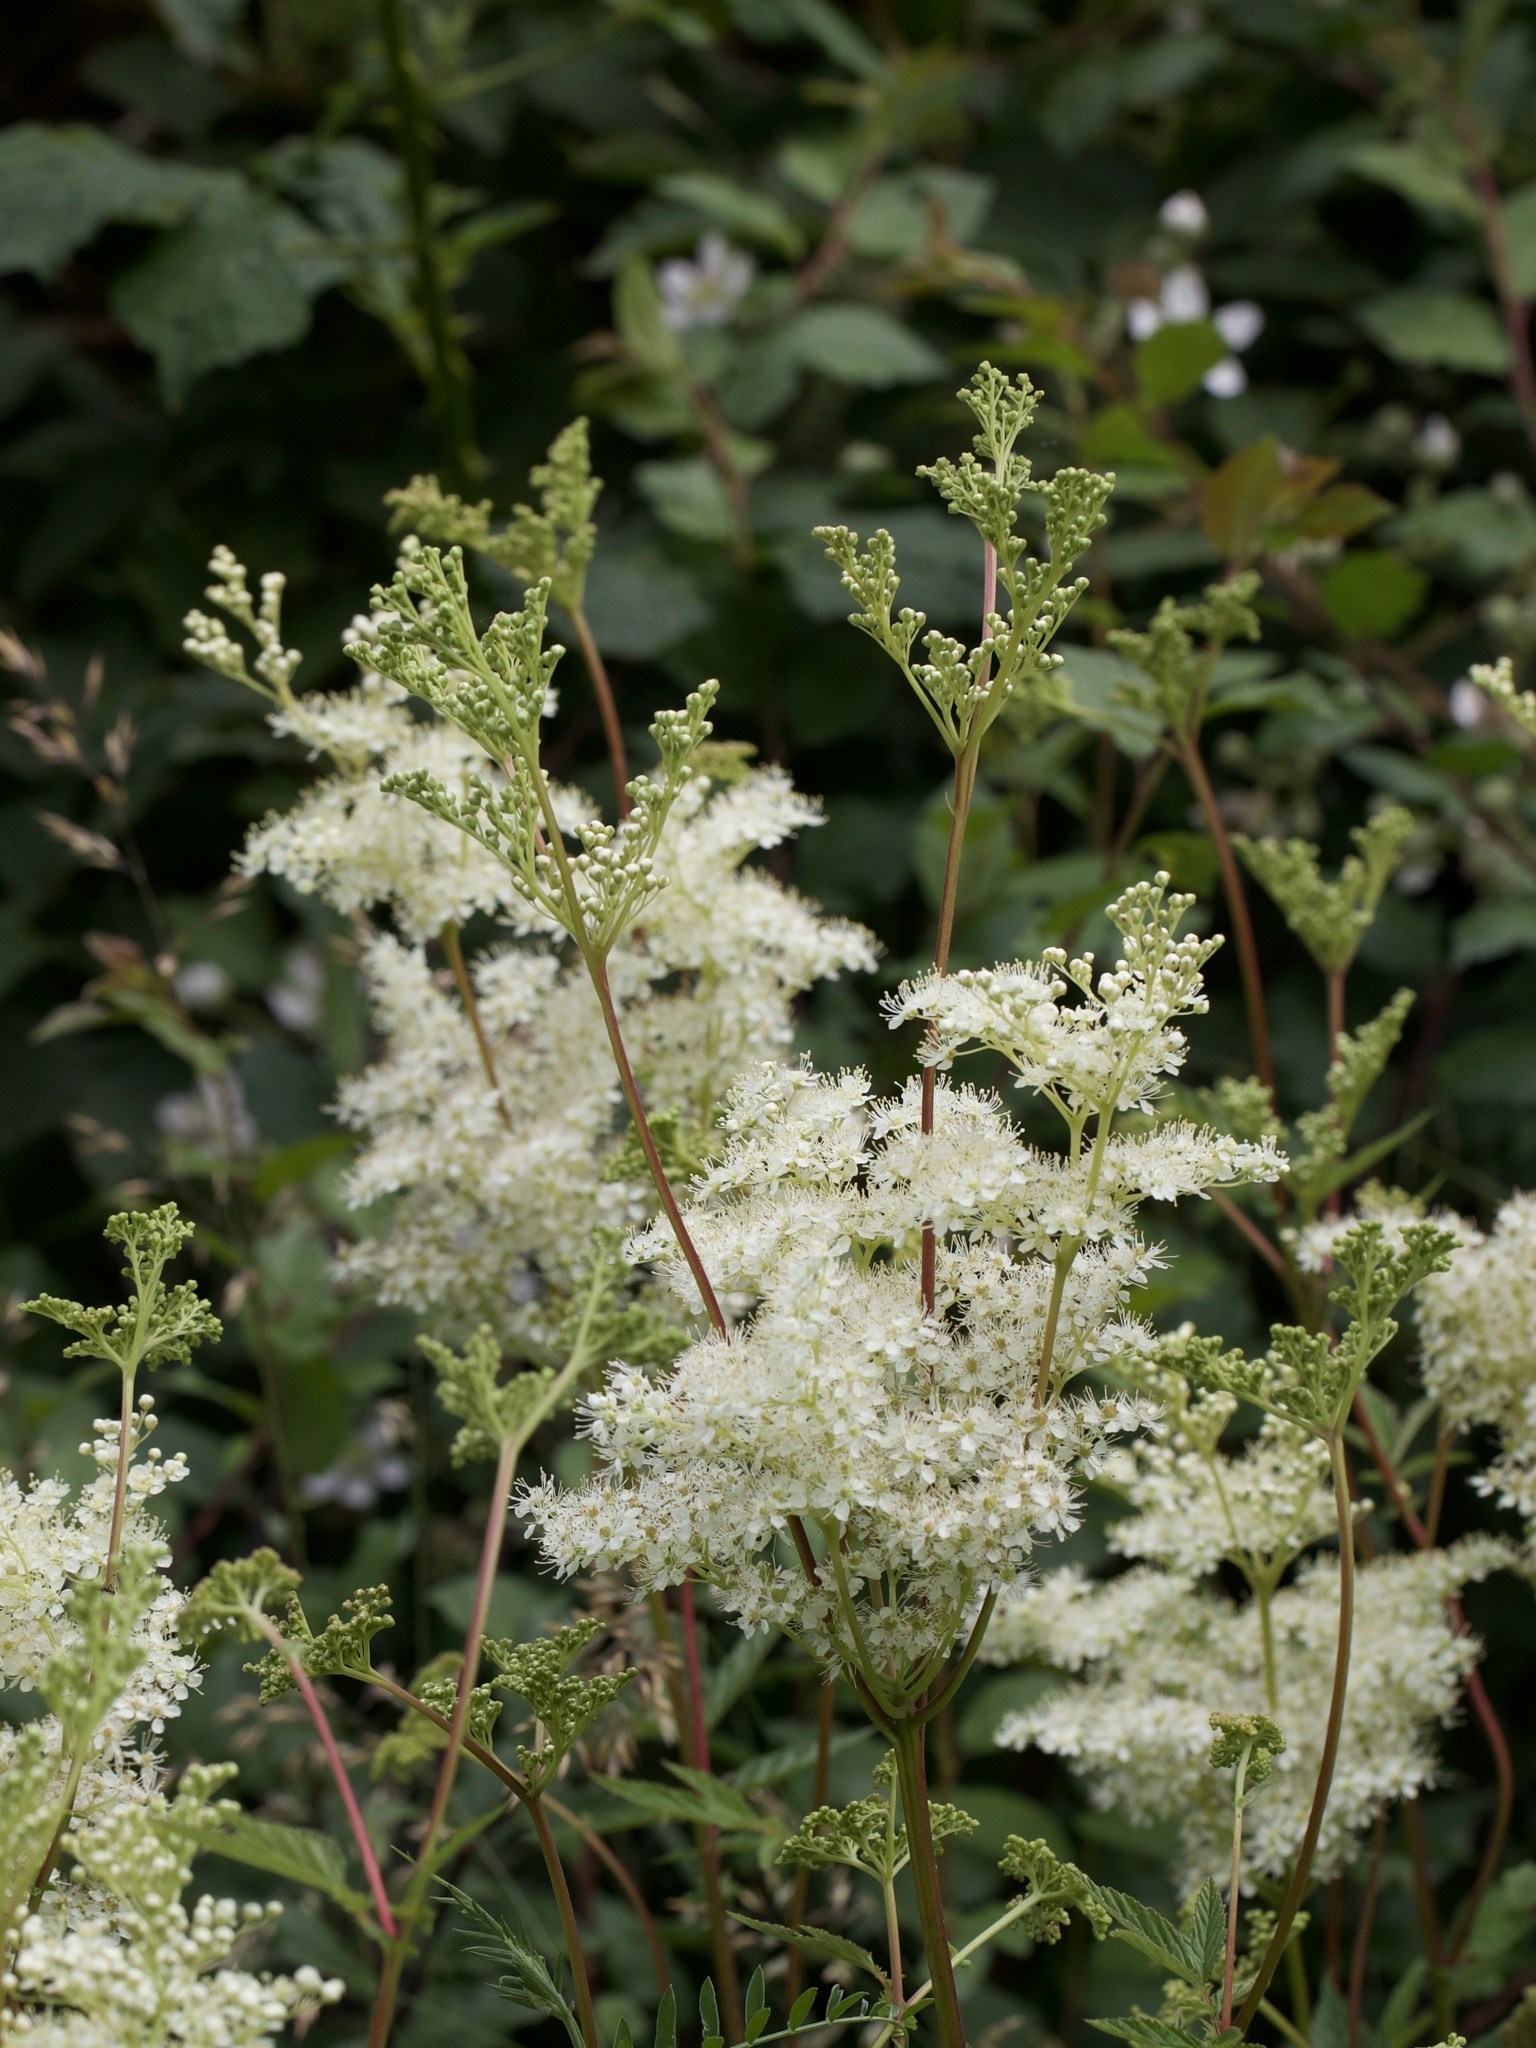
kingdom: Plantae
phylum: Tracheophyta
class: Magnoliopsida
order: Rosales
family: Rosaceae
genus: Filipendula
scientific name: Filipendula ulmaria
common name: Meadowsweet
